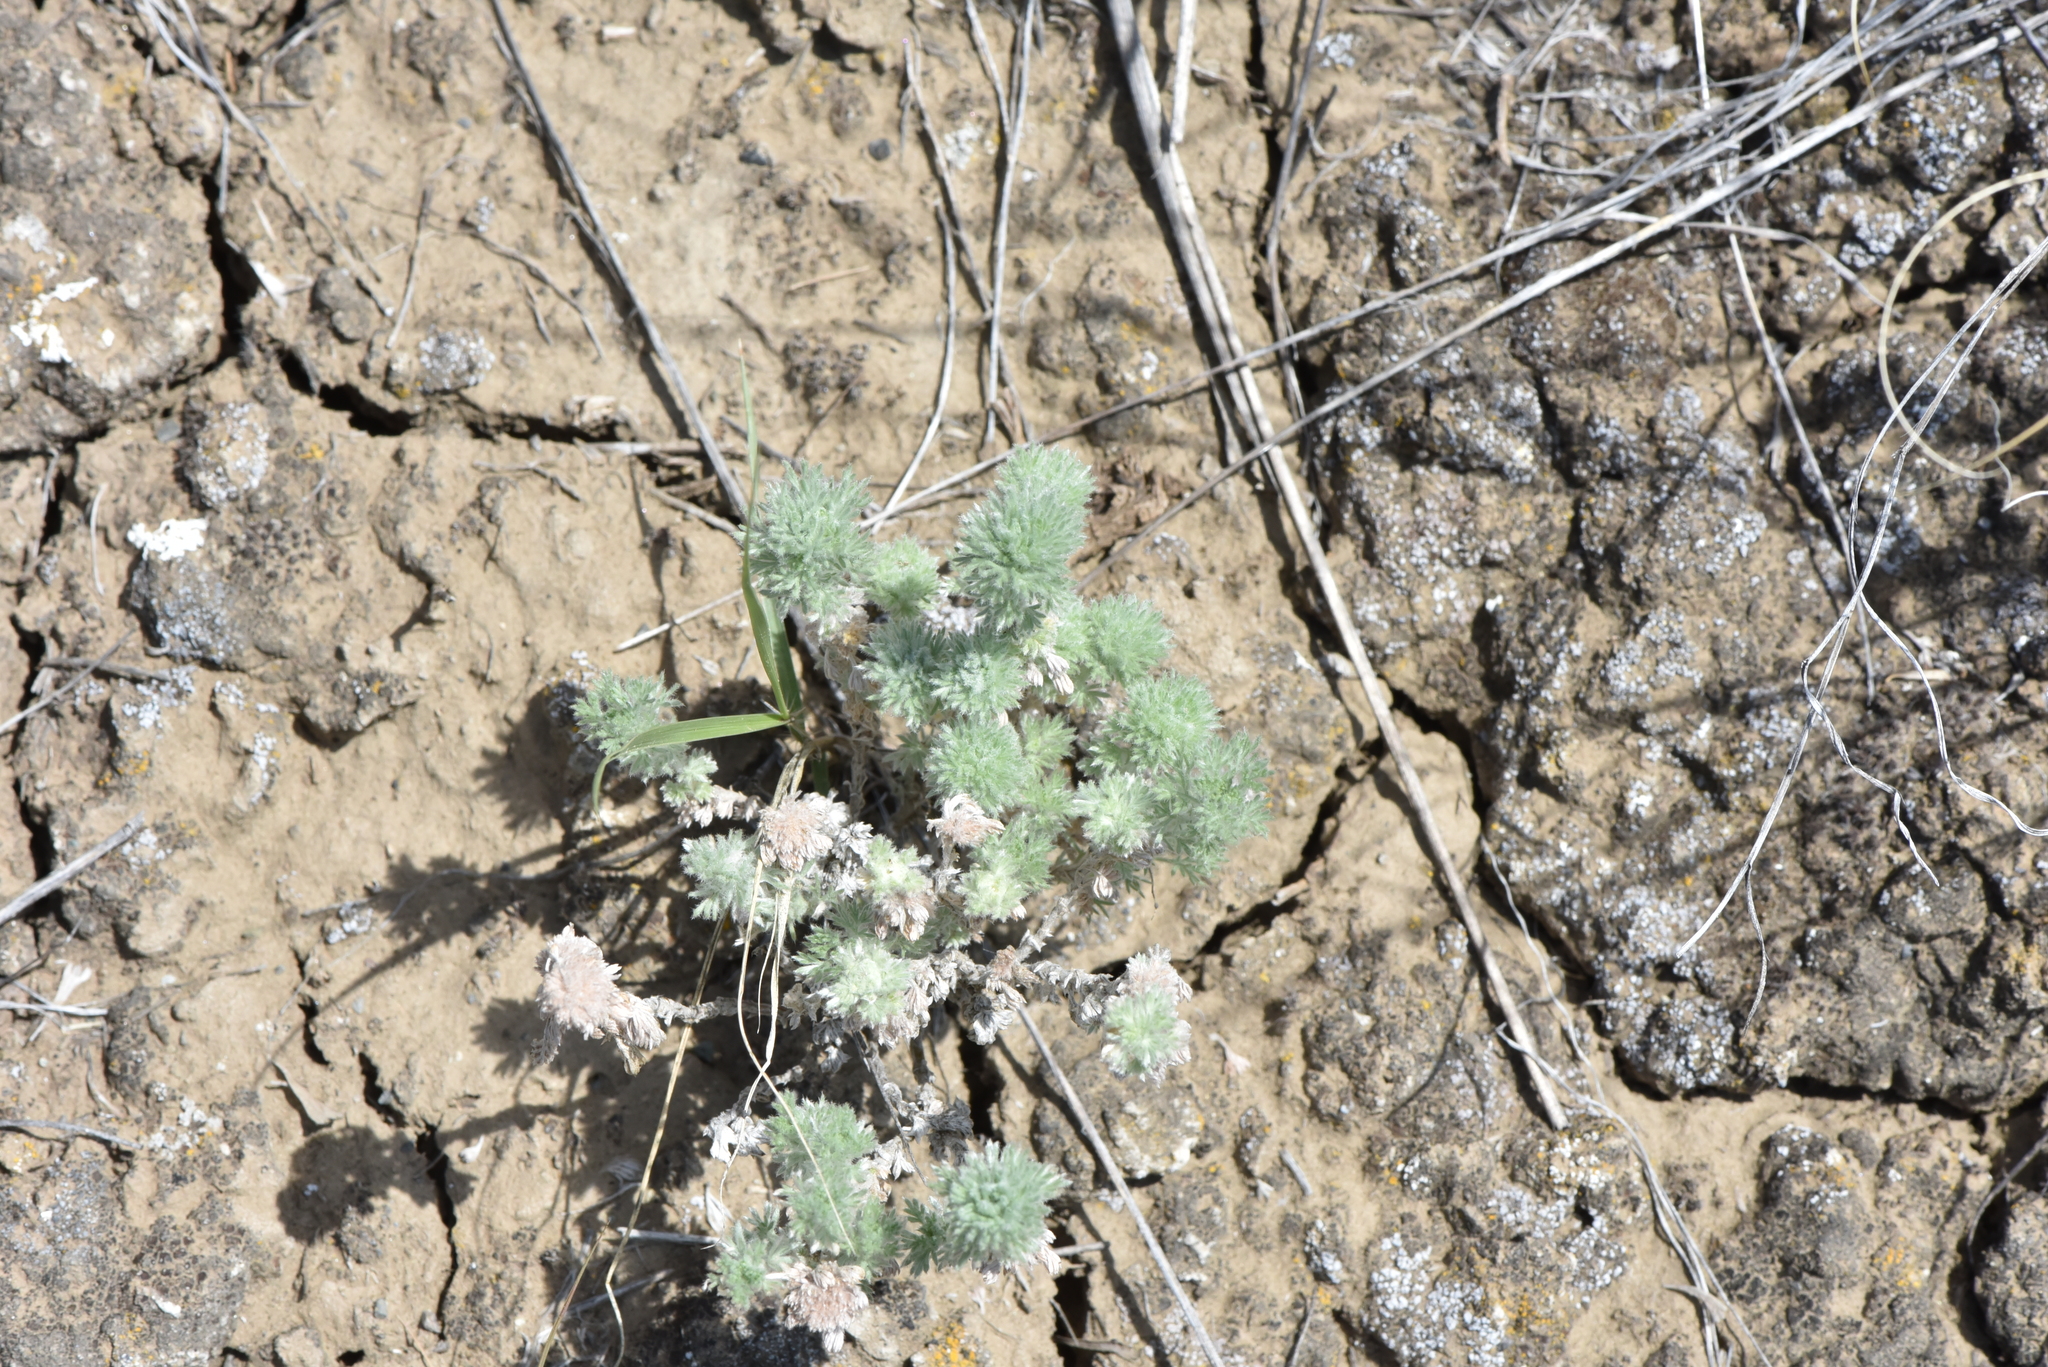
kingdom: Plantae
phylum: Tracheophyta
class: Magnoliopsida
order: Asterales
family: Asteraceae
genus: Artemisia
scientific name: Artemisia frigida
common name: Prairie sagewort
